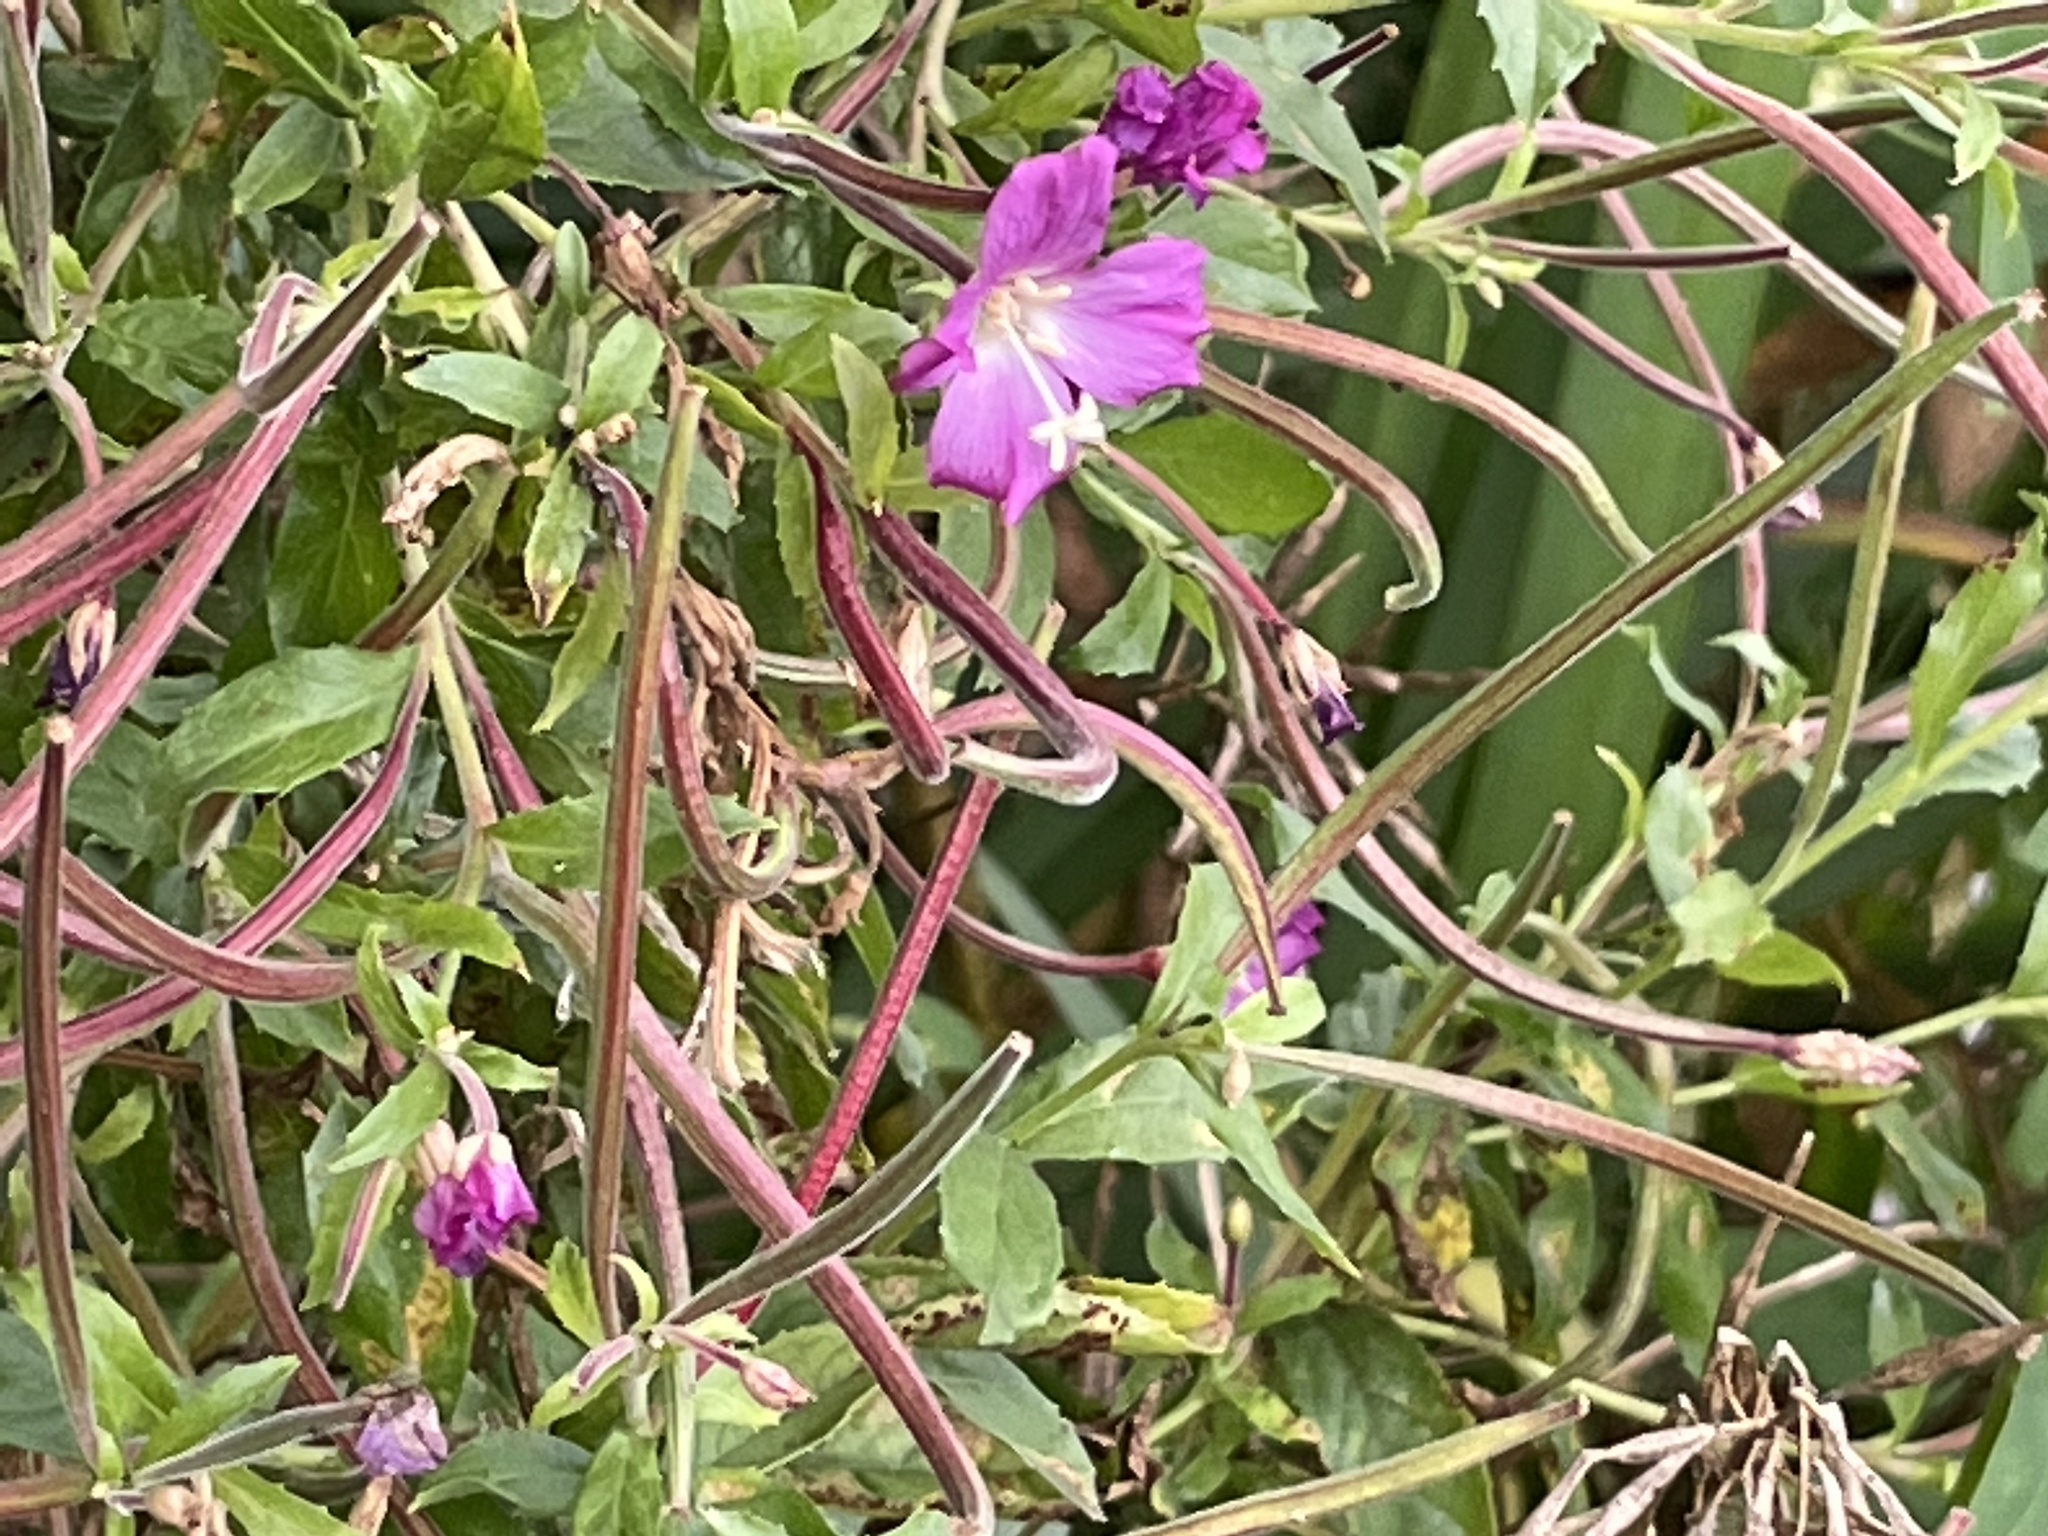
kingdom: Plantae
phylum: Tracheophyta
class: Magnoliopsida
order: Myrtales
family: Onagraceae
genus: Epilobium
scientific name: Epilobium hirsutum
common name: Great willowherb
